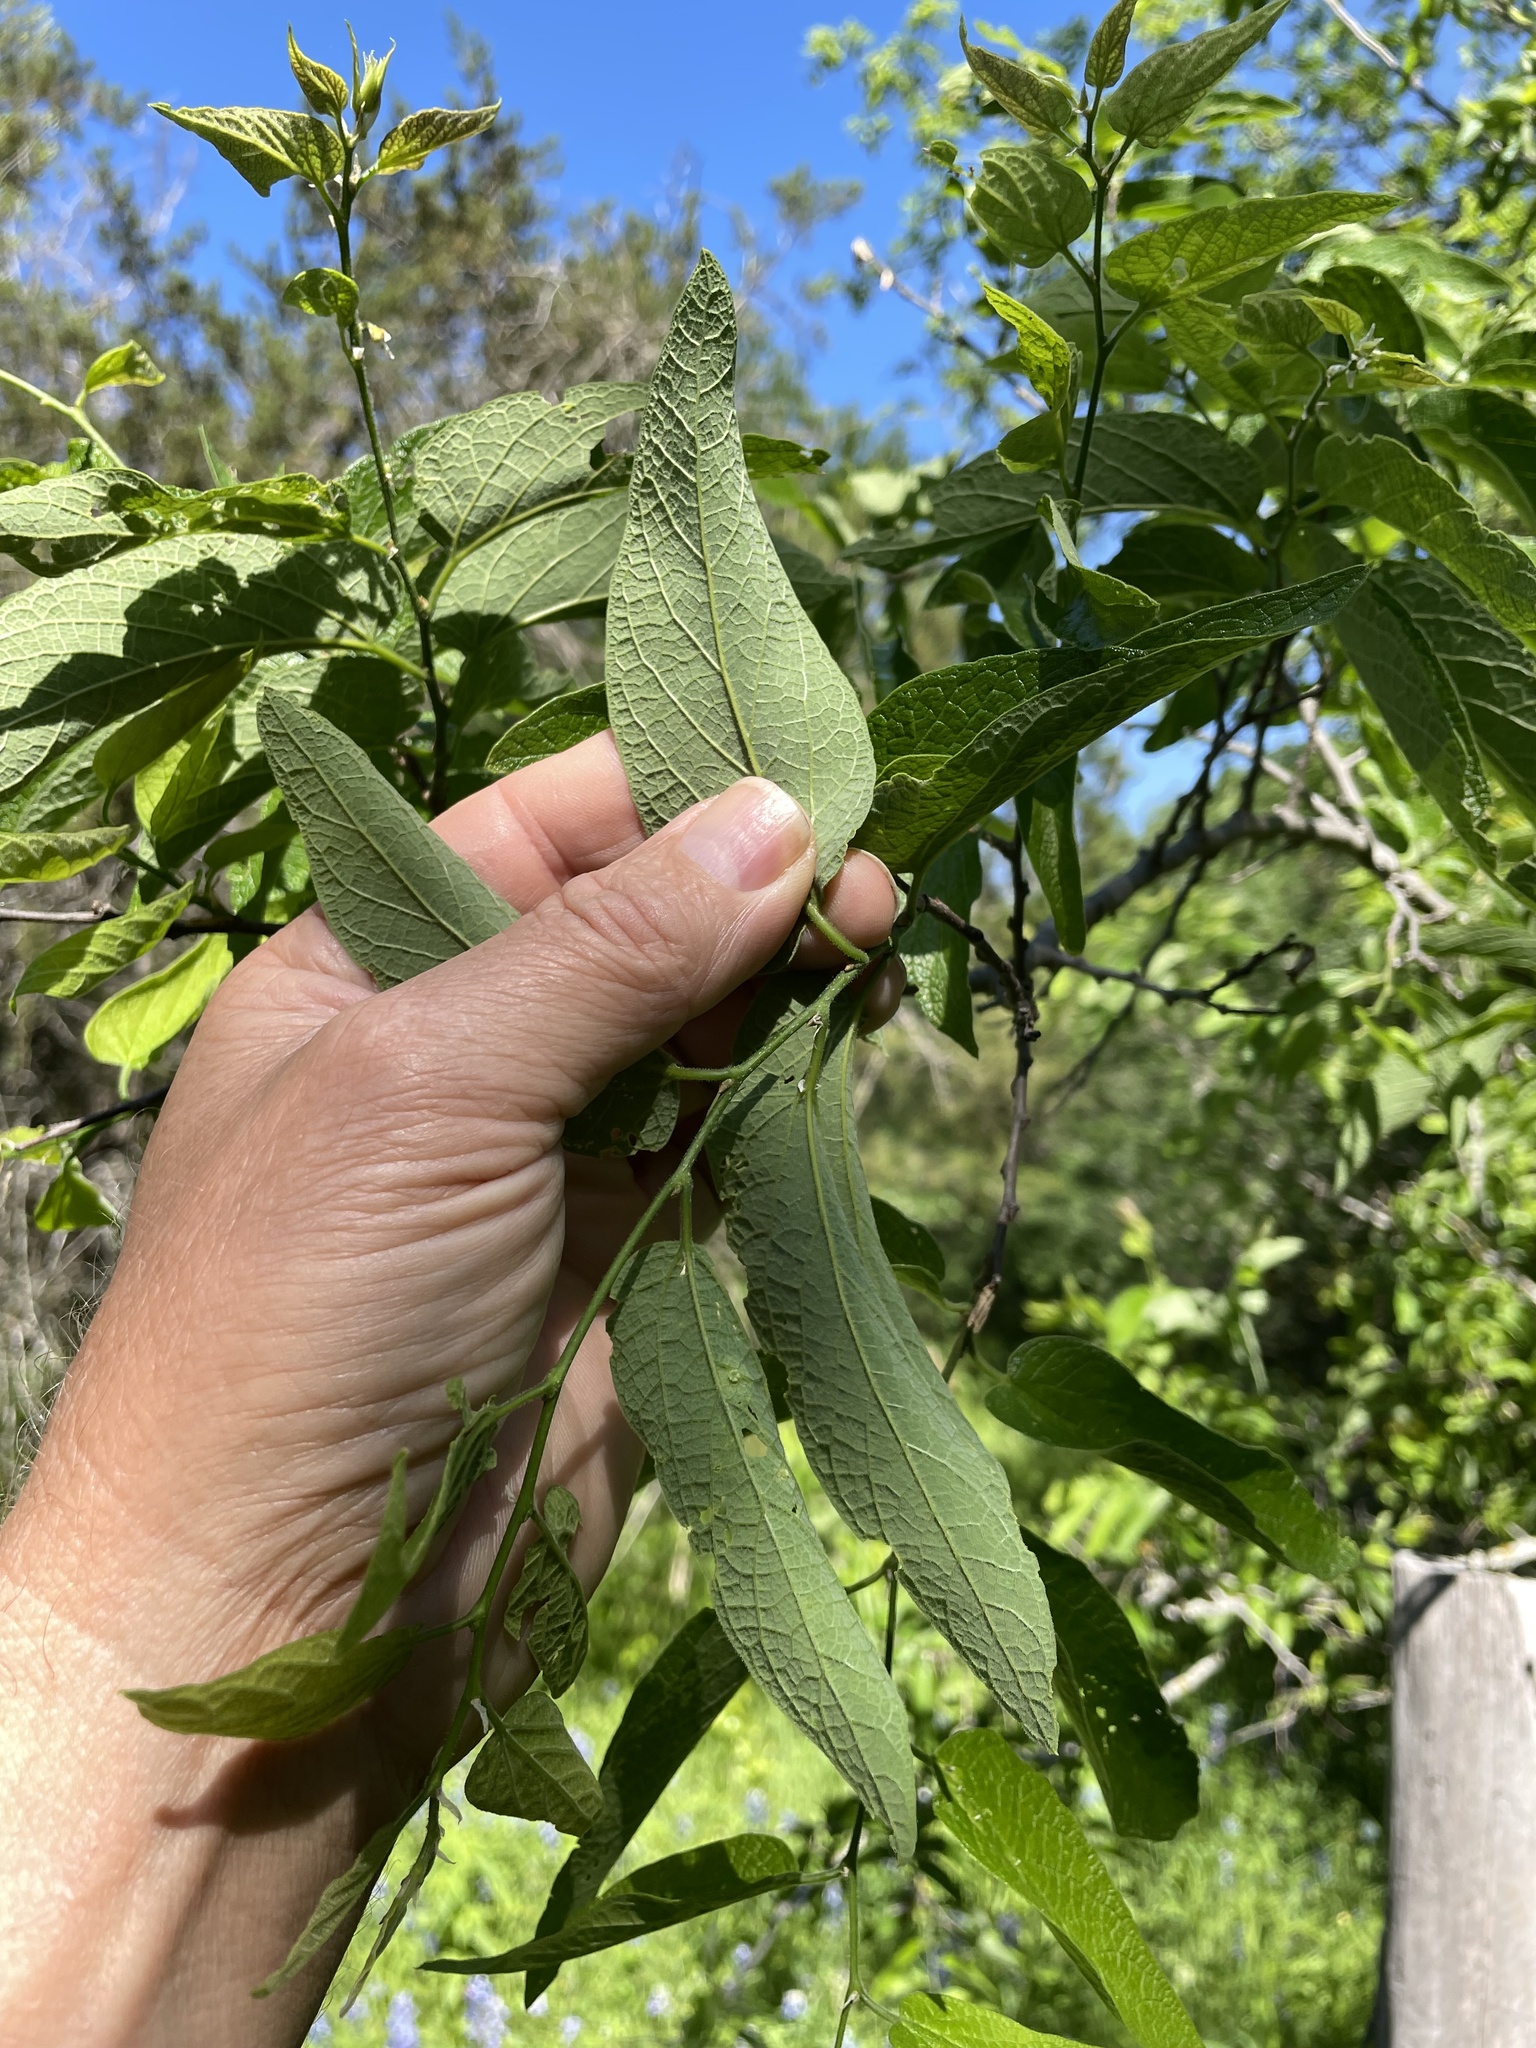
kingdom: Plantae
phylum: Tracheophyta
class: Magnoliopsida
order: Rosales
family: Cannabaceae
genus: Celtis
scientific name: Celtis reticulata
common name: Netleaf hackberry
